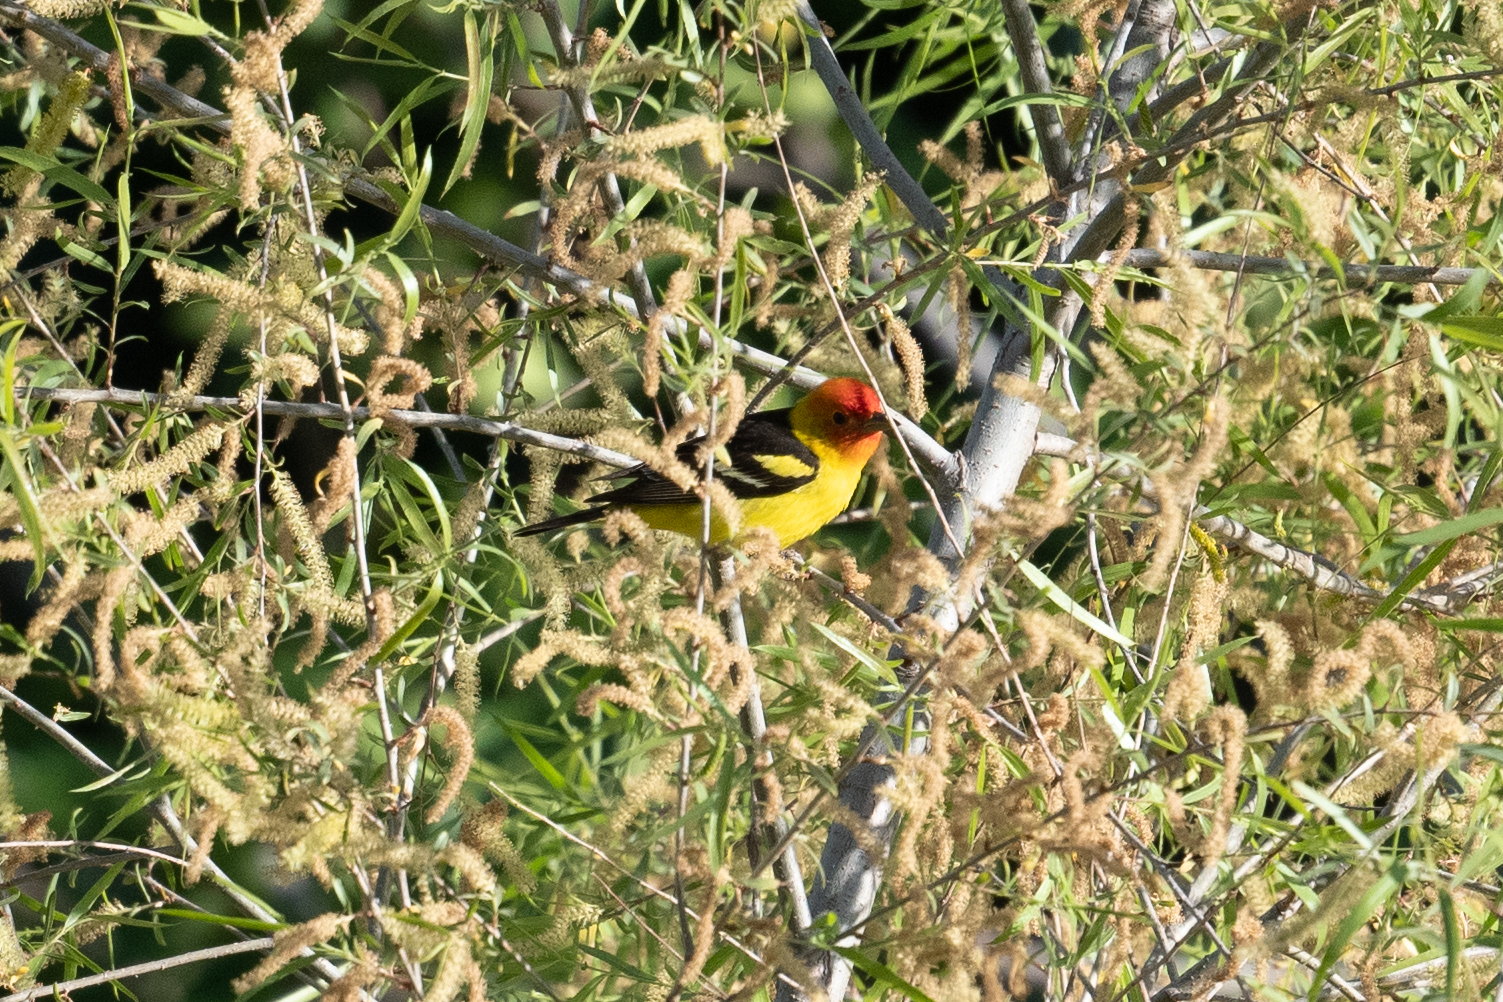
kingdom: Animalia
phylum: Chordata
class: Aves
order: Passeriformes
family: Cardinalidae
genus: Piranga
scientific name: Piranga ludoviciana
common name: Western tanager
